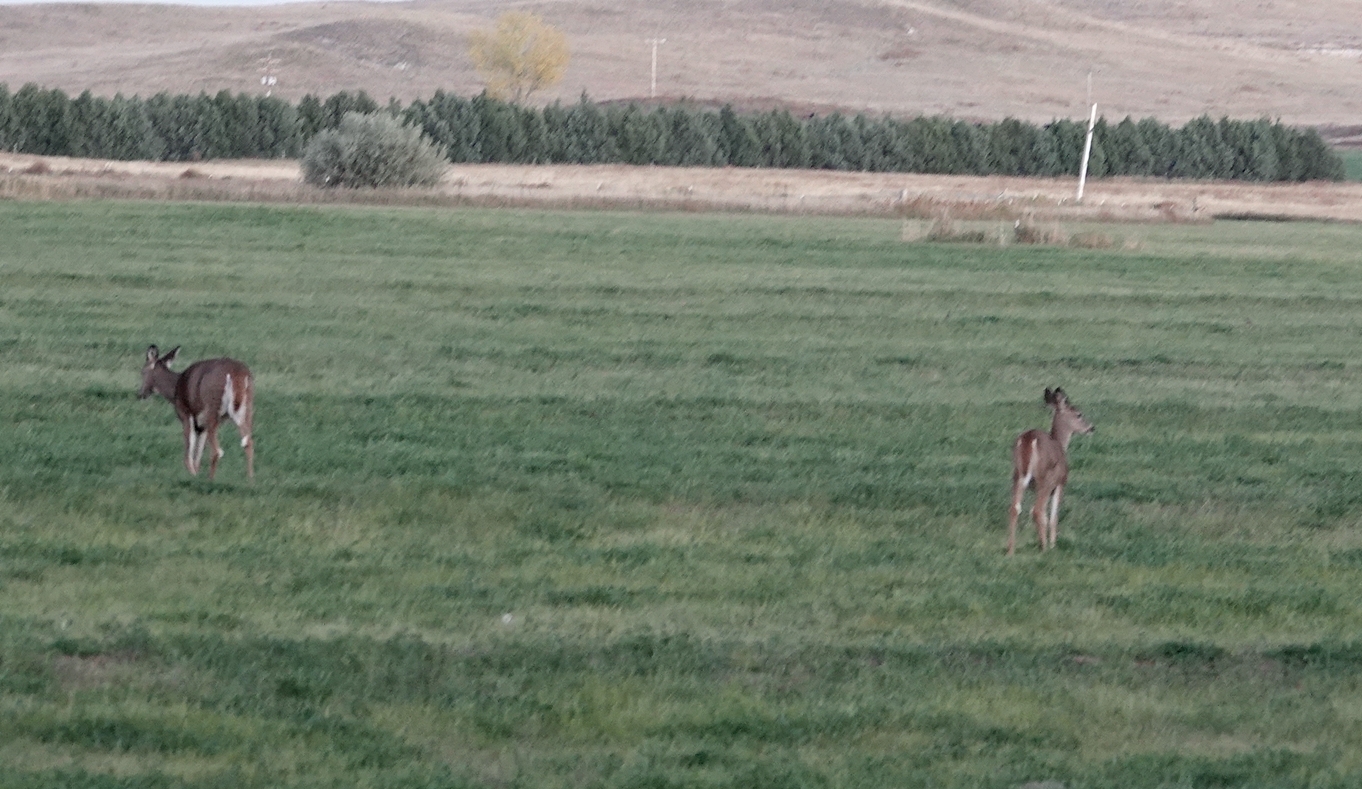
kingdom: Animalia
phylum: Chordata
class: Mammalia
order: Artiodactyla
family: Cervidae
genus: Odocoileus
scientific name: Odocoileus virginianus
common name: White-tailed deer
